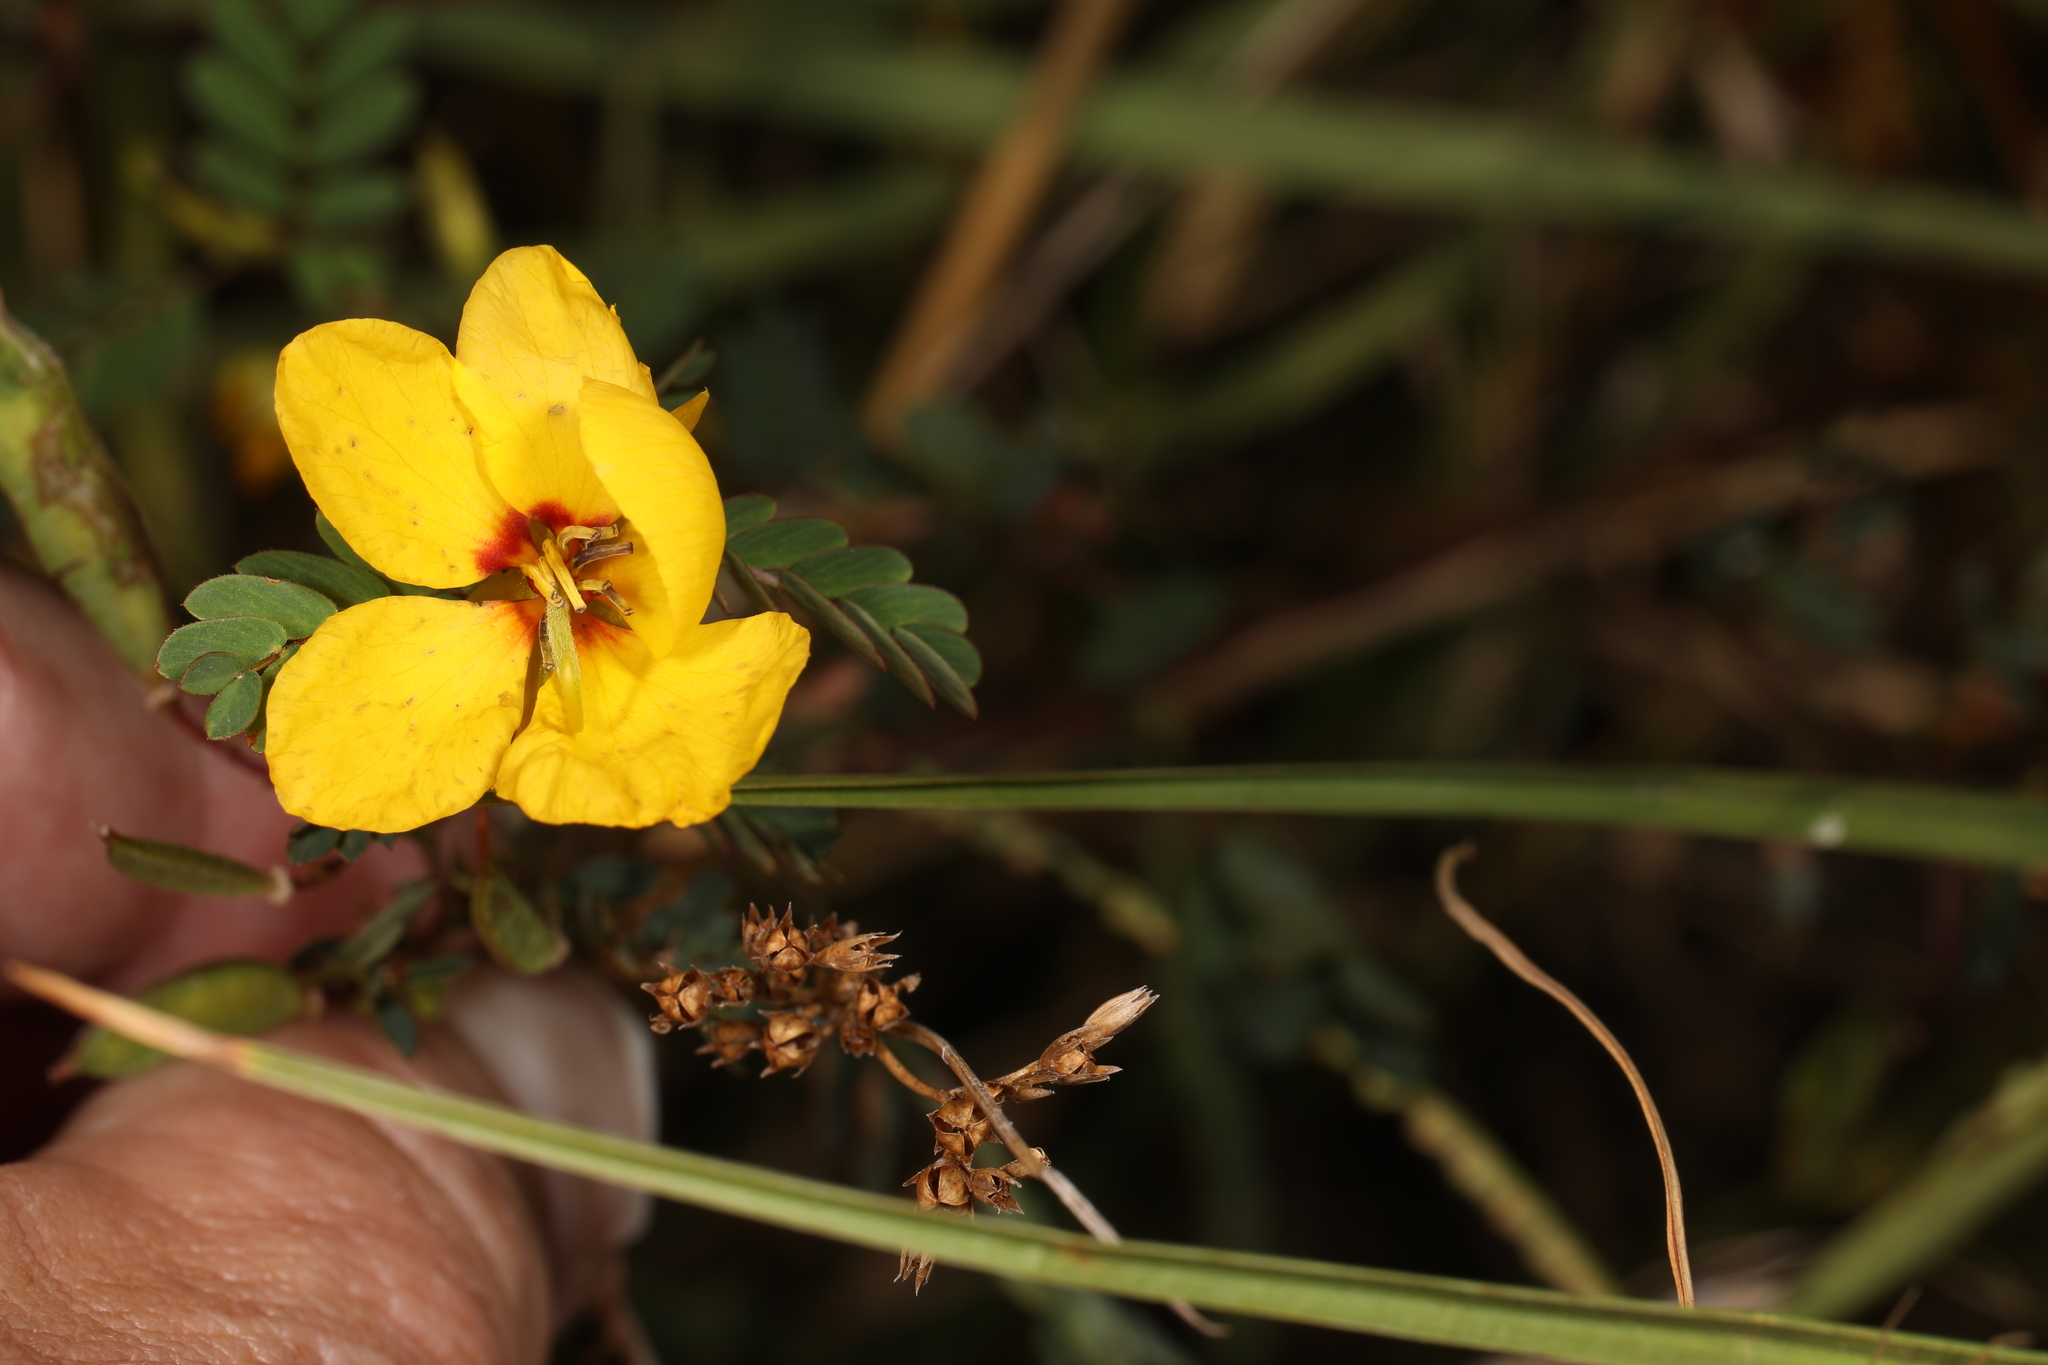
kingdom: Plantae
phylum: Tracheophyta
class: Magnoliopsida
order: Fabales
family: Fabaceae
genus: Chamaecrista
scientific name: Chamaecrista fasciculata
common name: Golden cassia
